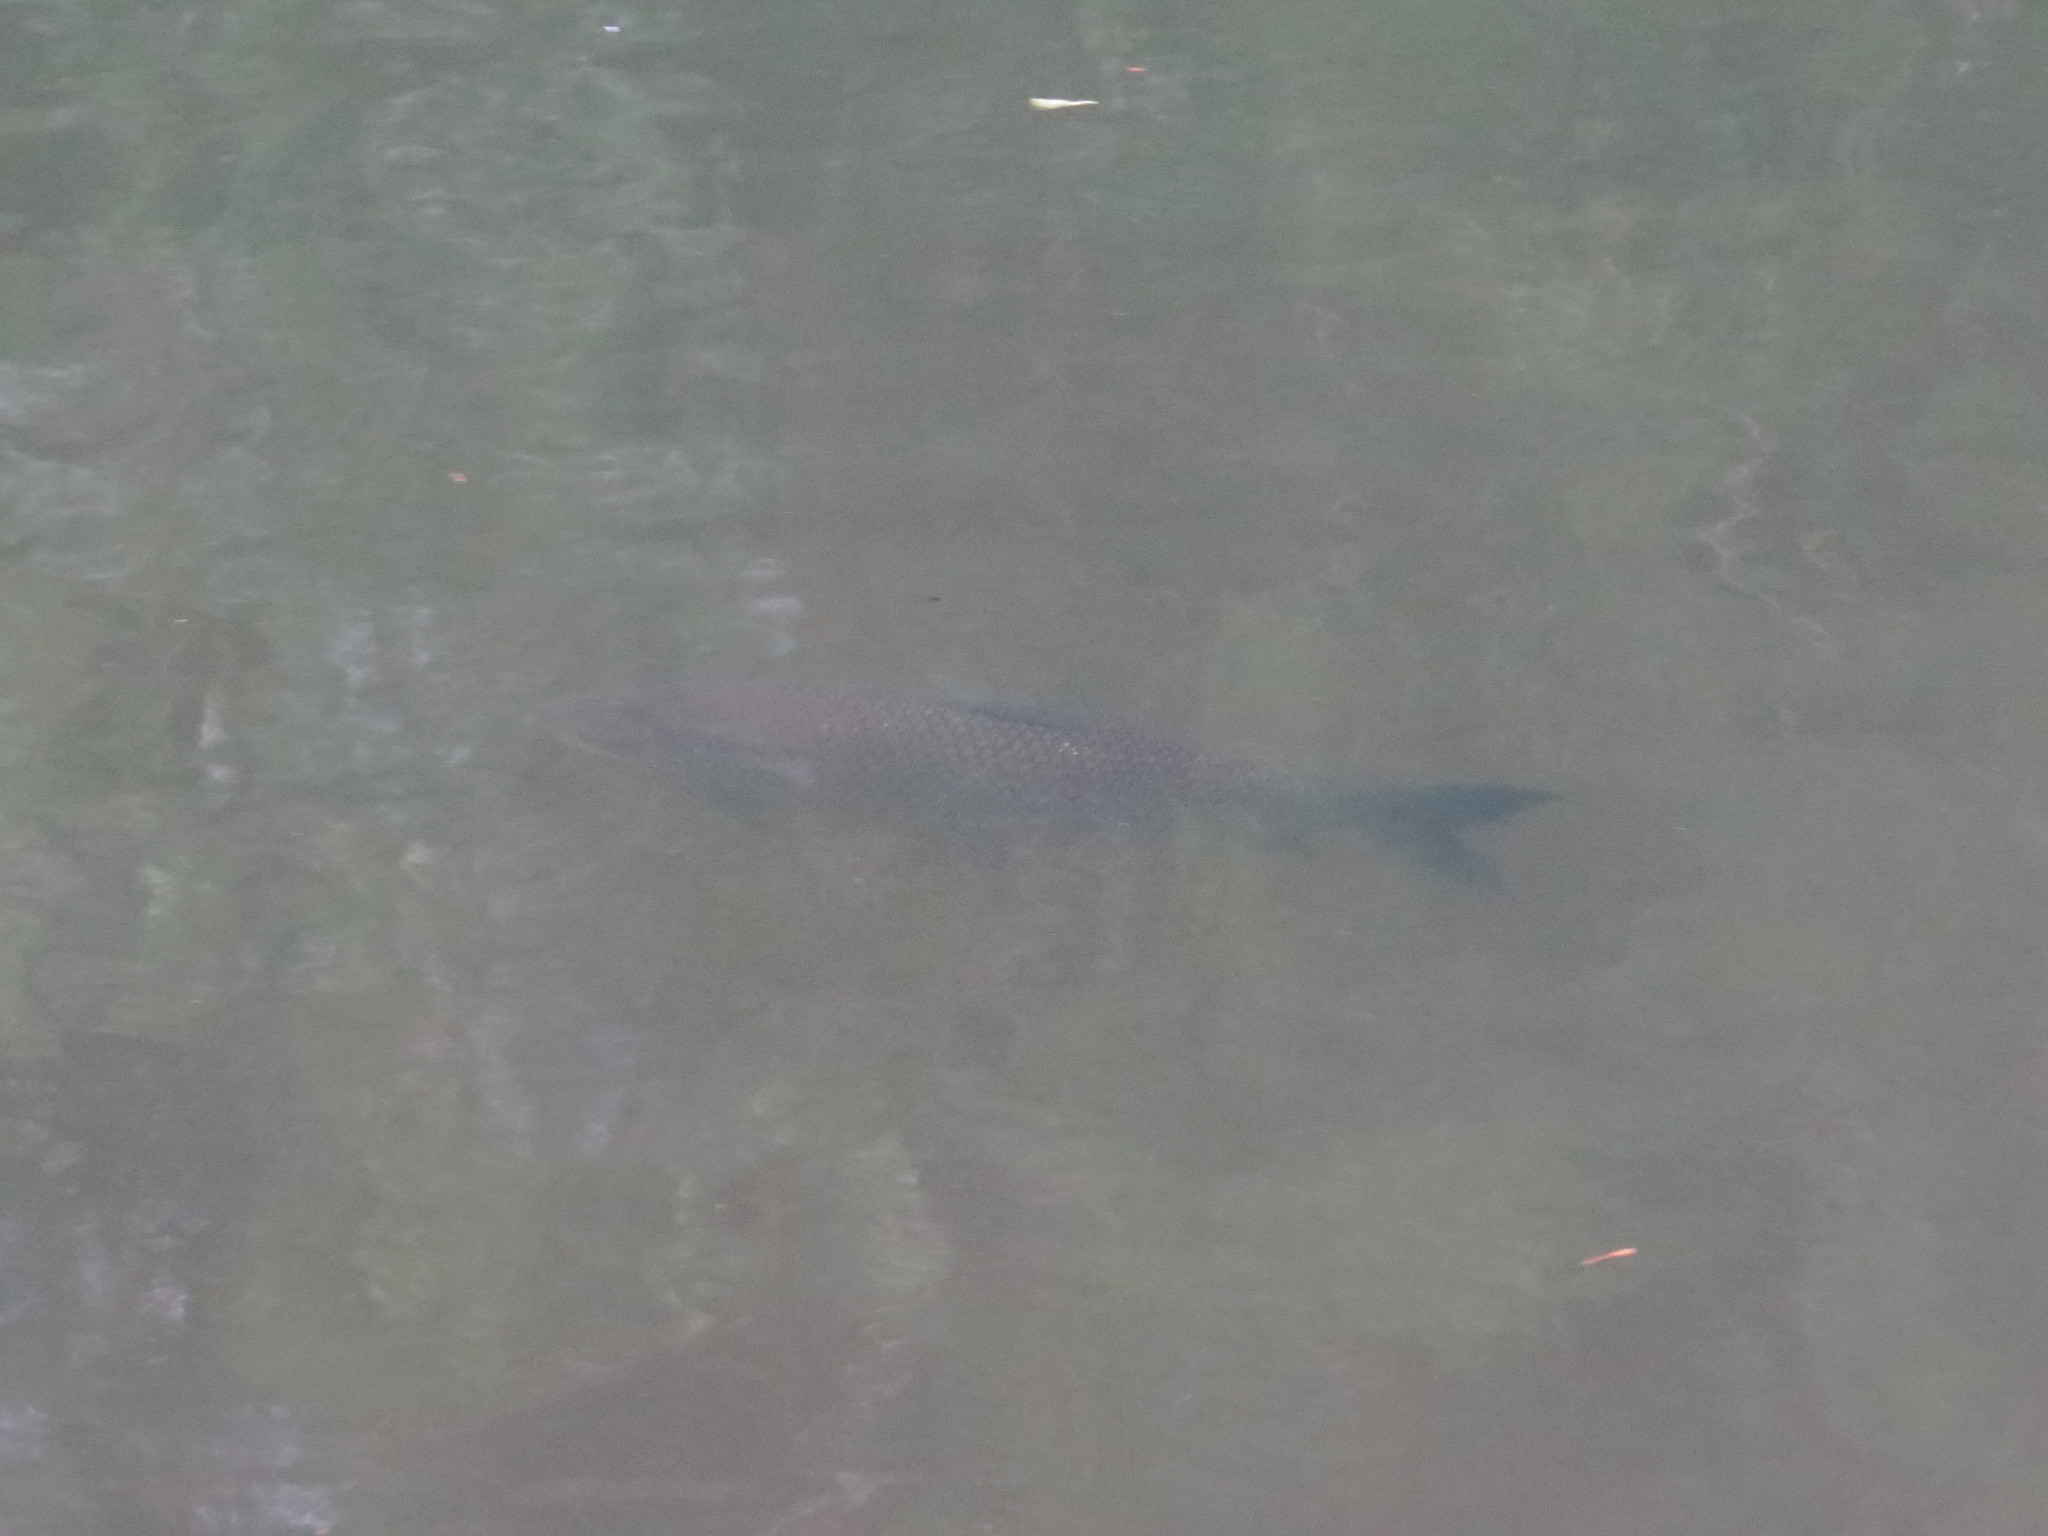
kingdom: Animalia
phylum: Chordata
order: Characiformes
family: Prochilodontidae
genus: Prochilodus
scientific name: Prochilodus lineatus
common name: Curimbata
